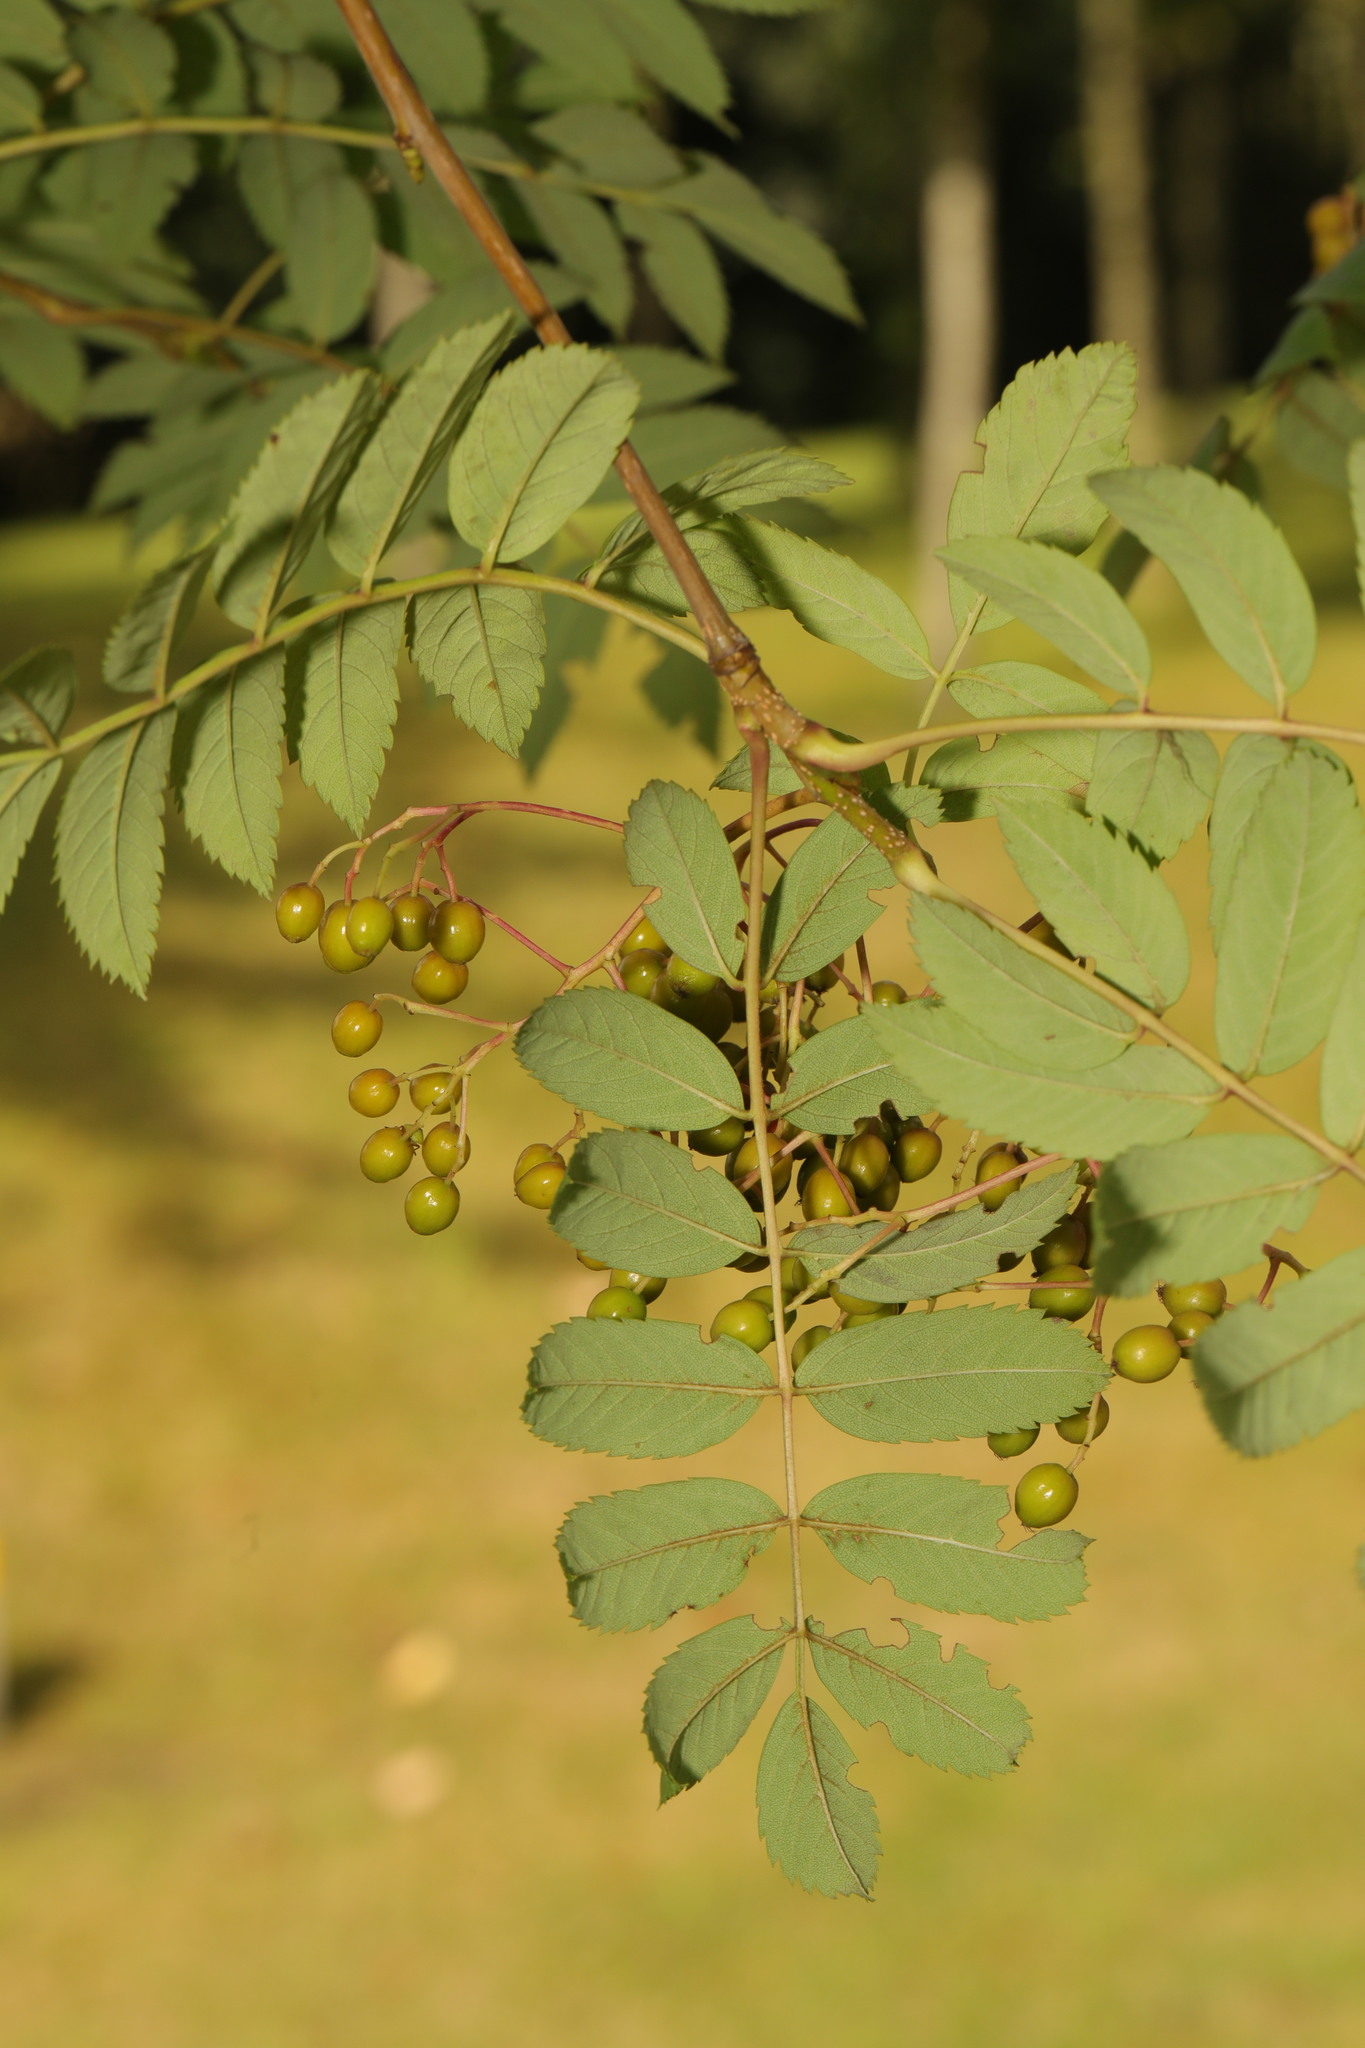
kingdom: Plantae
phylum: Tracheophyta
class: Magnoliopsida
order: Rosales
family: Rosaceae
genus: Sorbus
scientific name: Sorbus aucuparia
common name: Rowan
